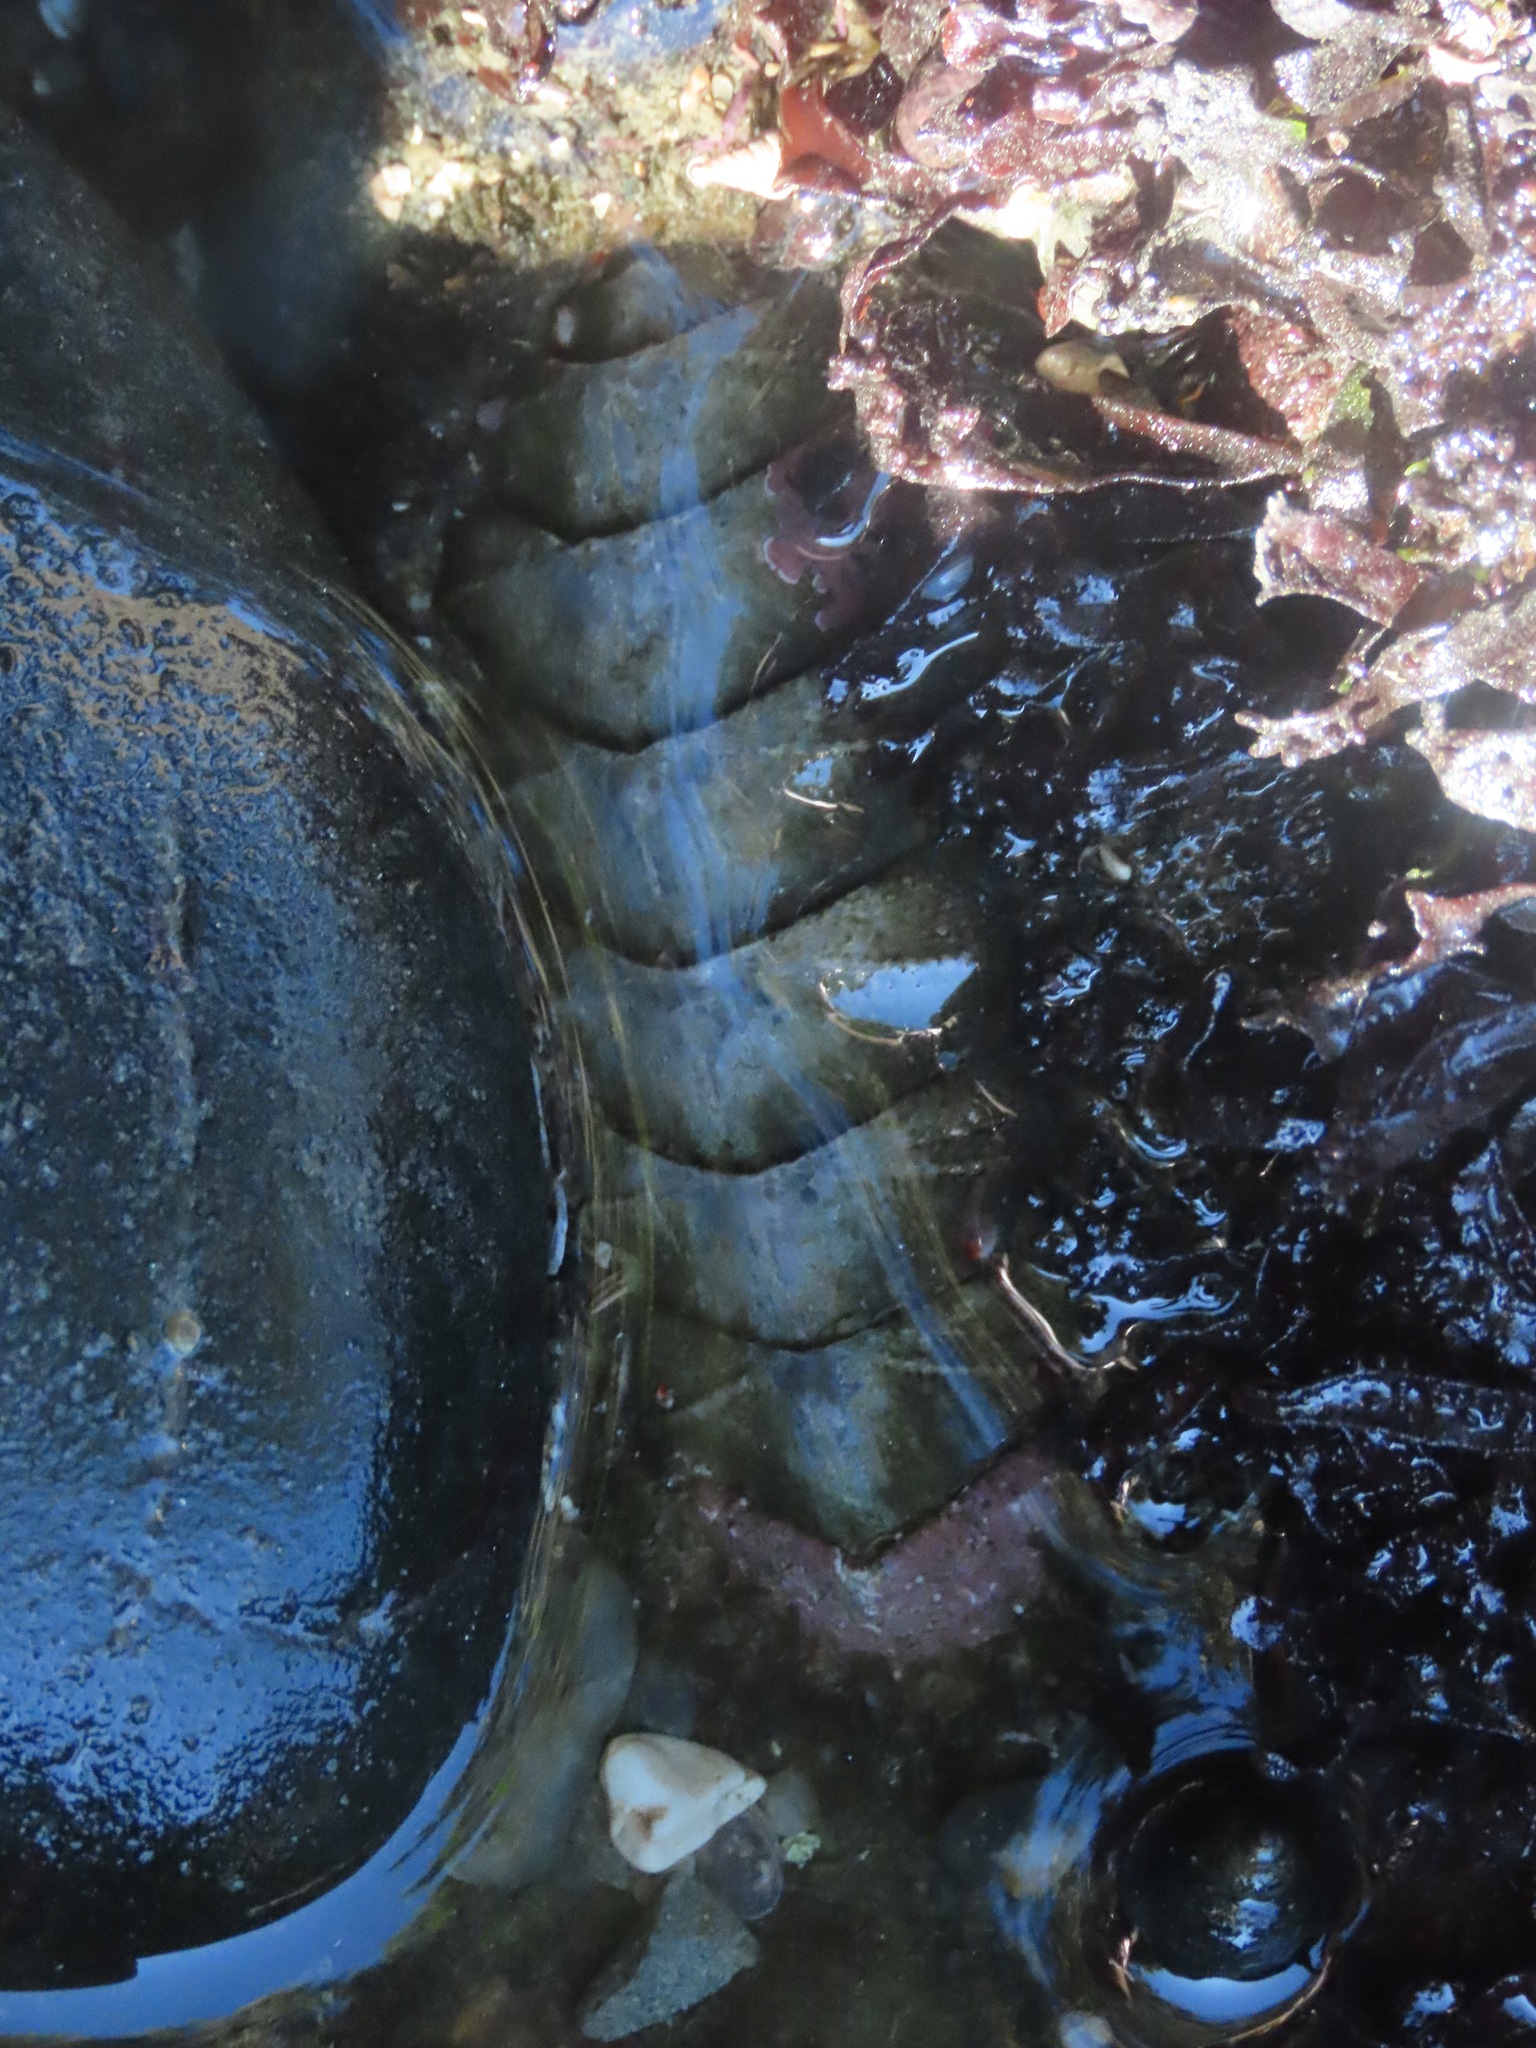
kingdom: Animalia
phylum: Mollusca
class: Polyplacophora
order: Chitonida
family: Mopaliidae
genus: Mopalia
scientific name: Mopalia muscosa
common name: Mossy chiton
